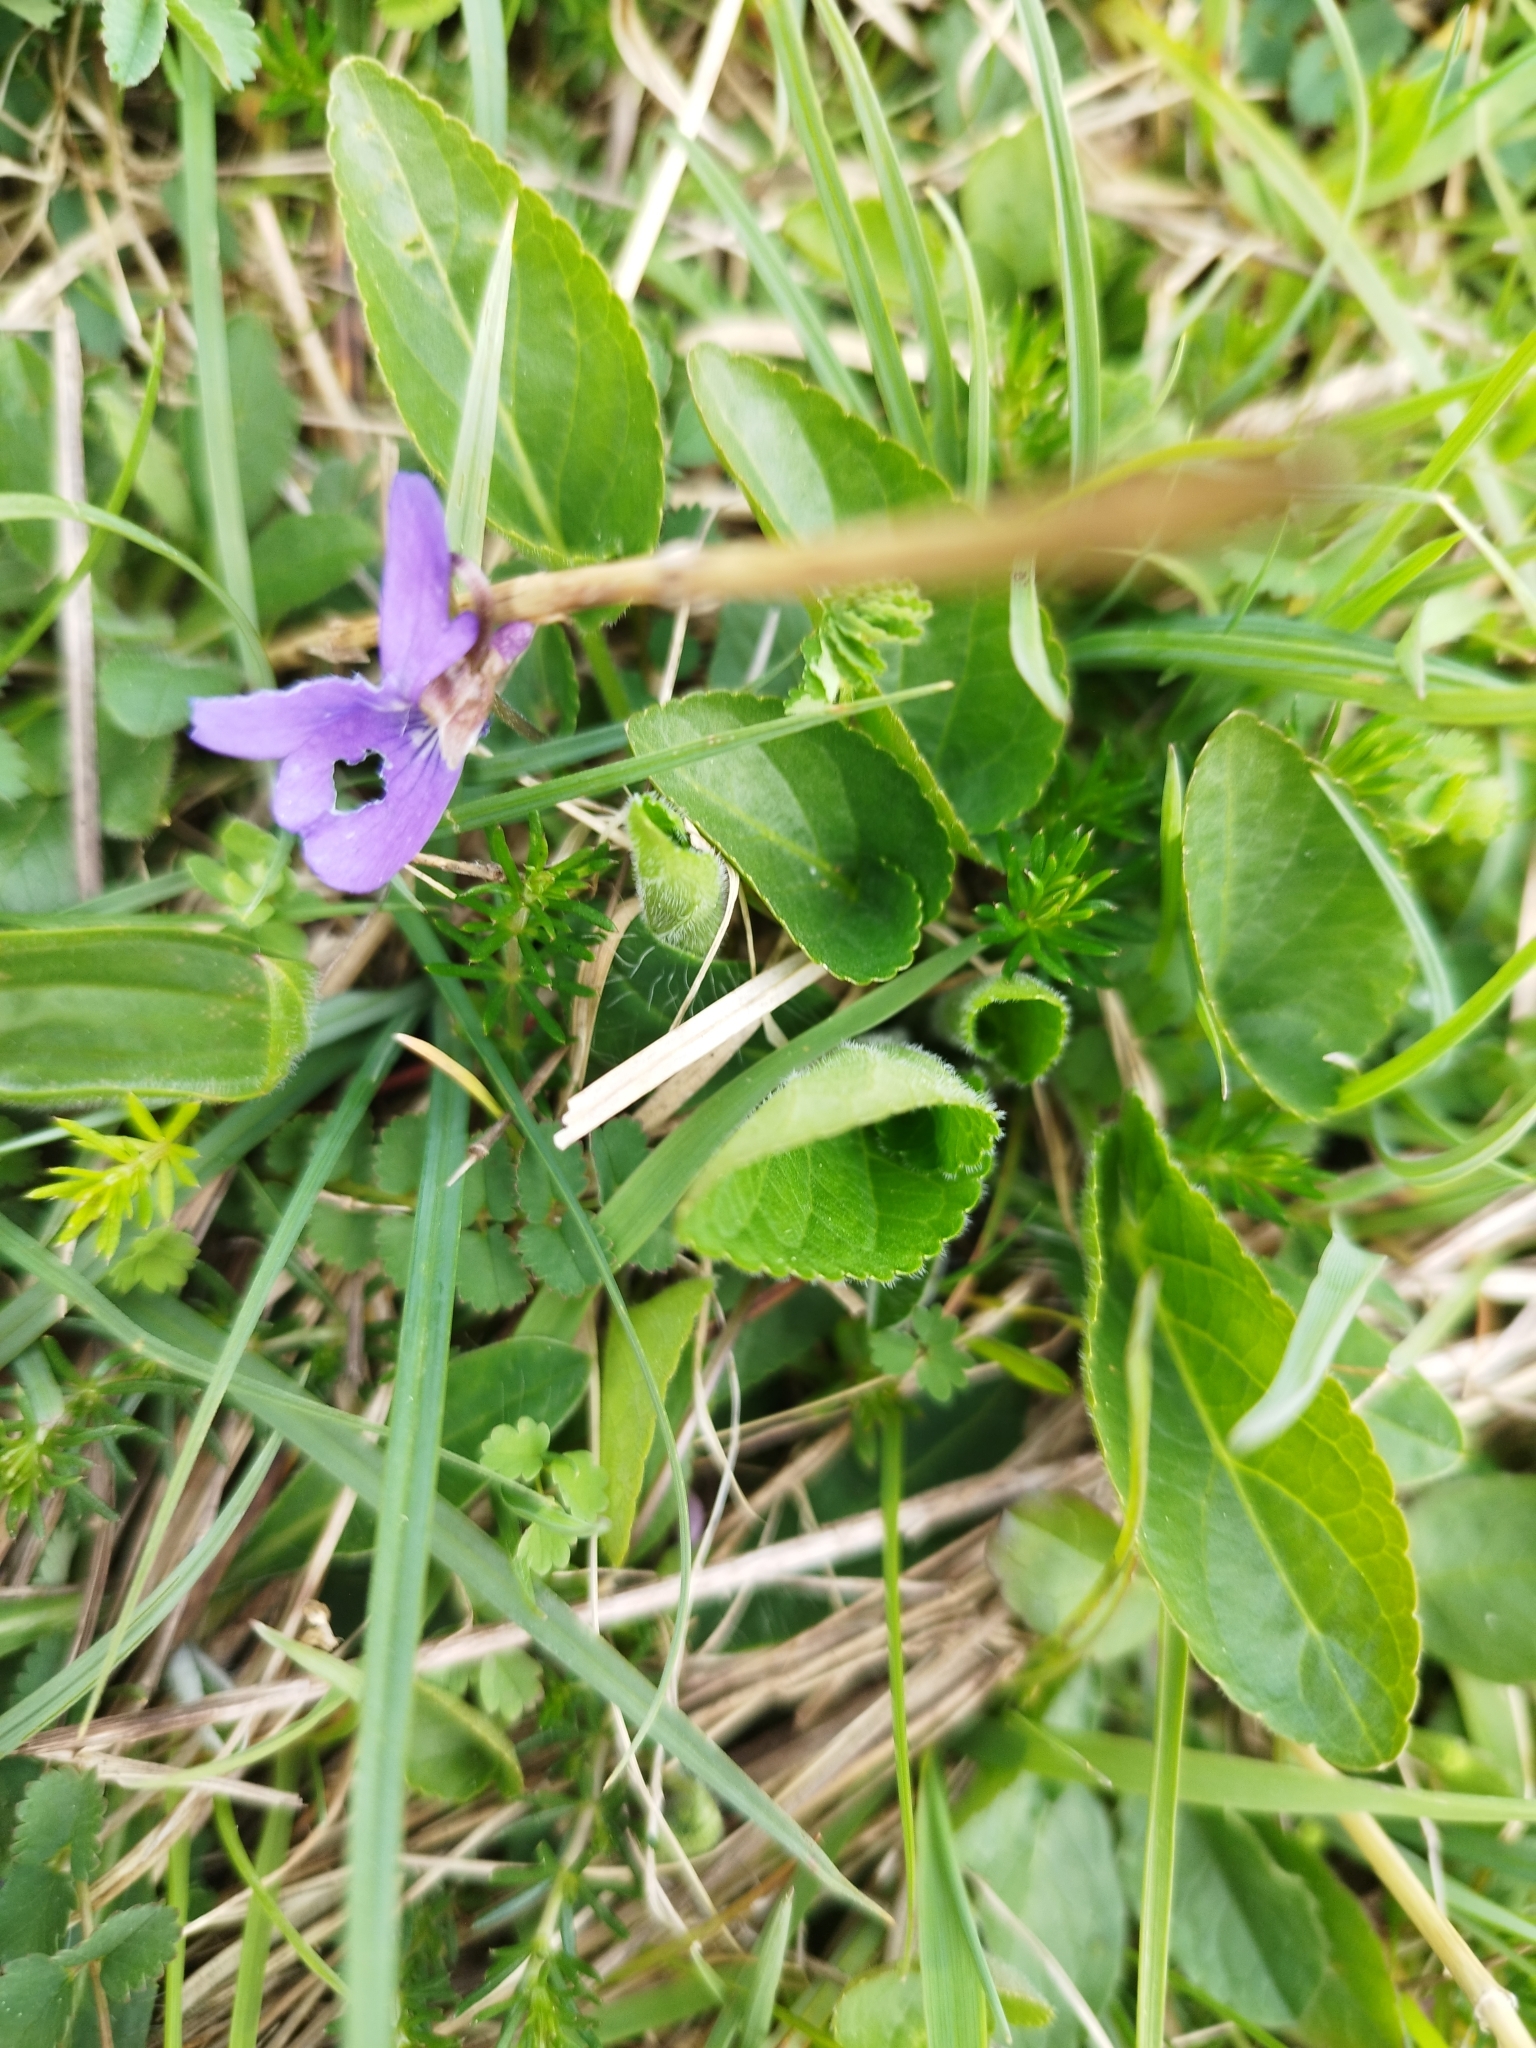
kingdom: Plantae
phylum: Tracheophyta
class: Magnoliopsida
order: Malpighiales
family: Violaceae
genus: Viola
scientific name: Viola hirta
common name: Hairy violet
